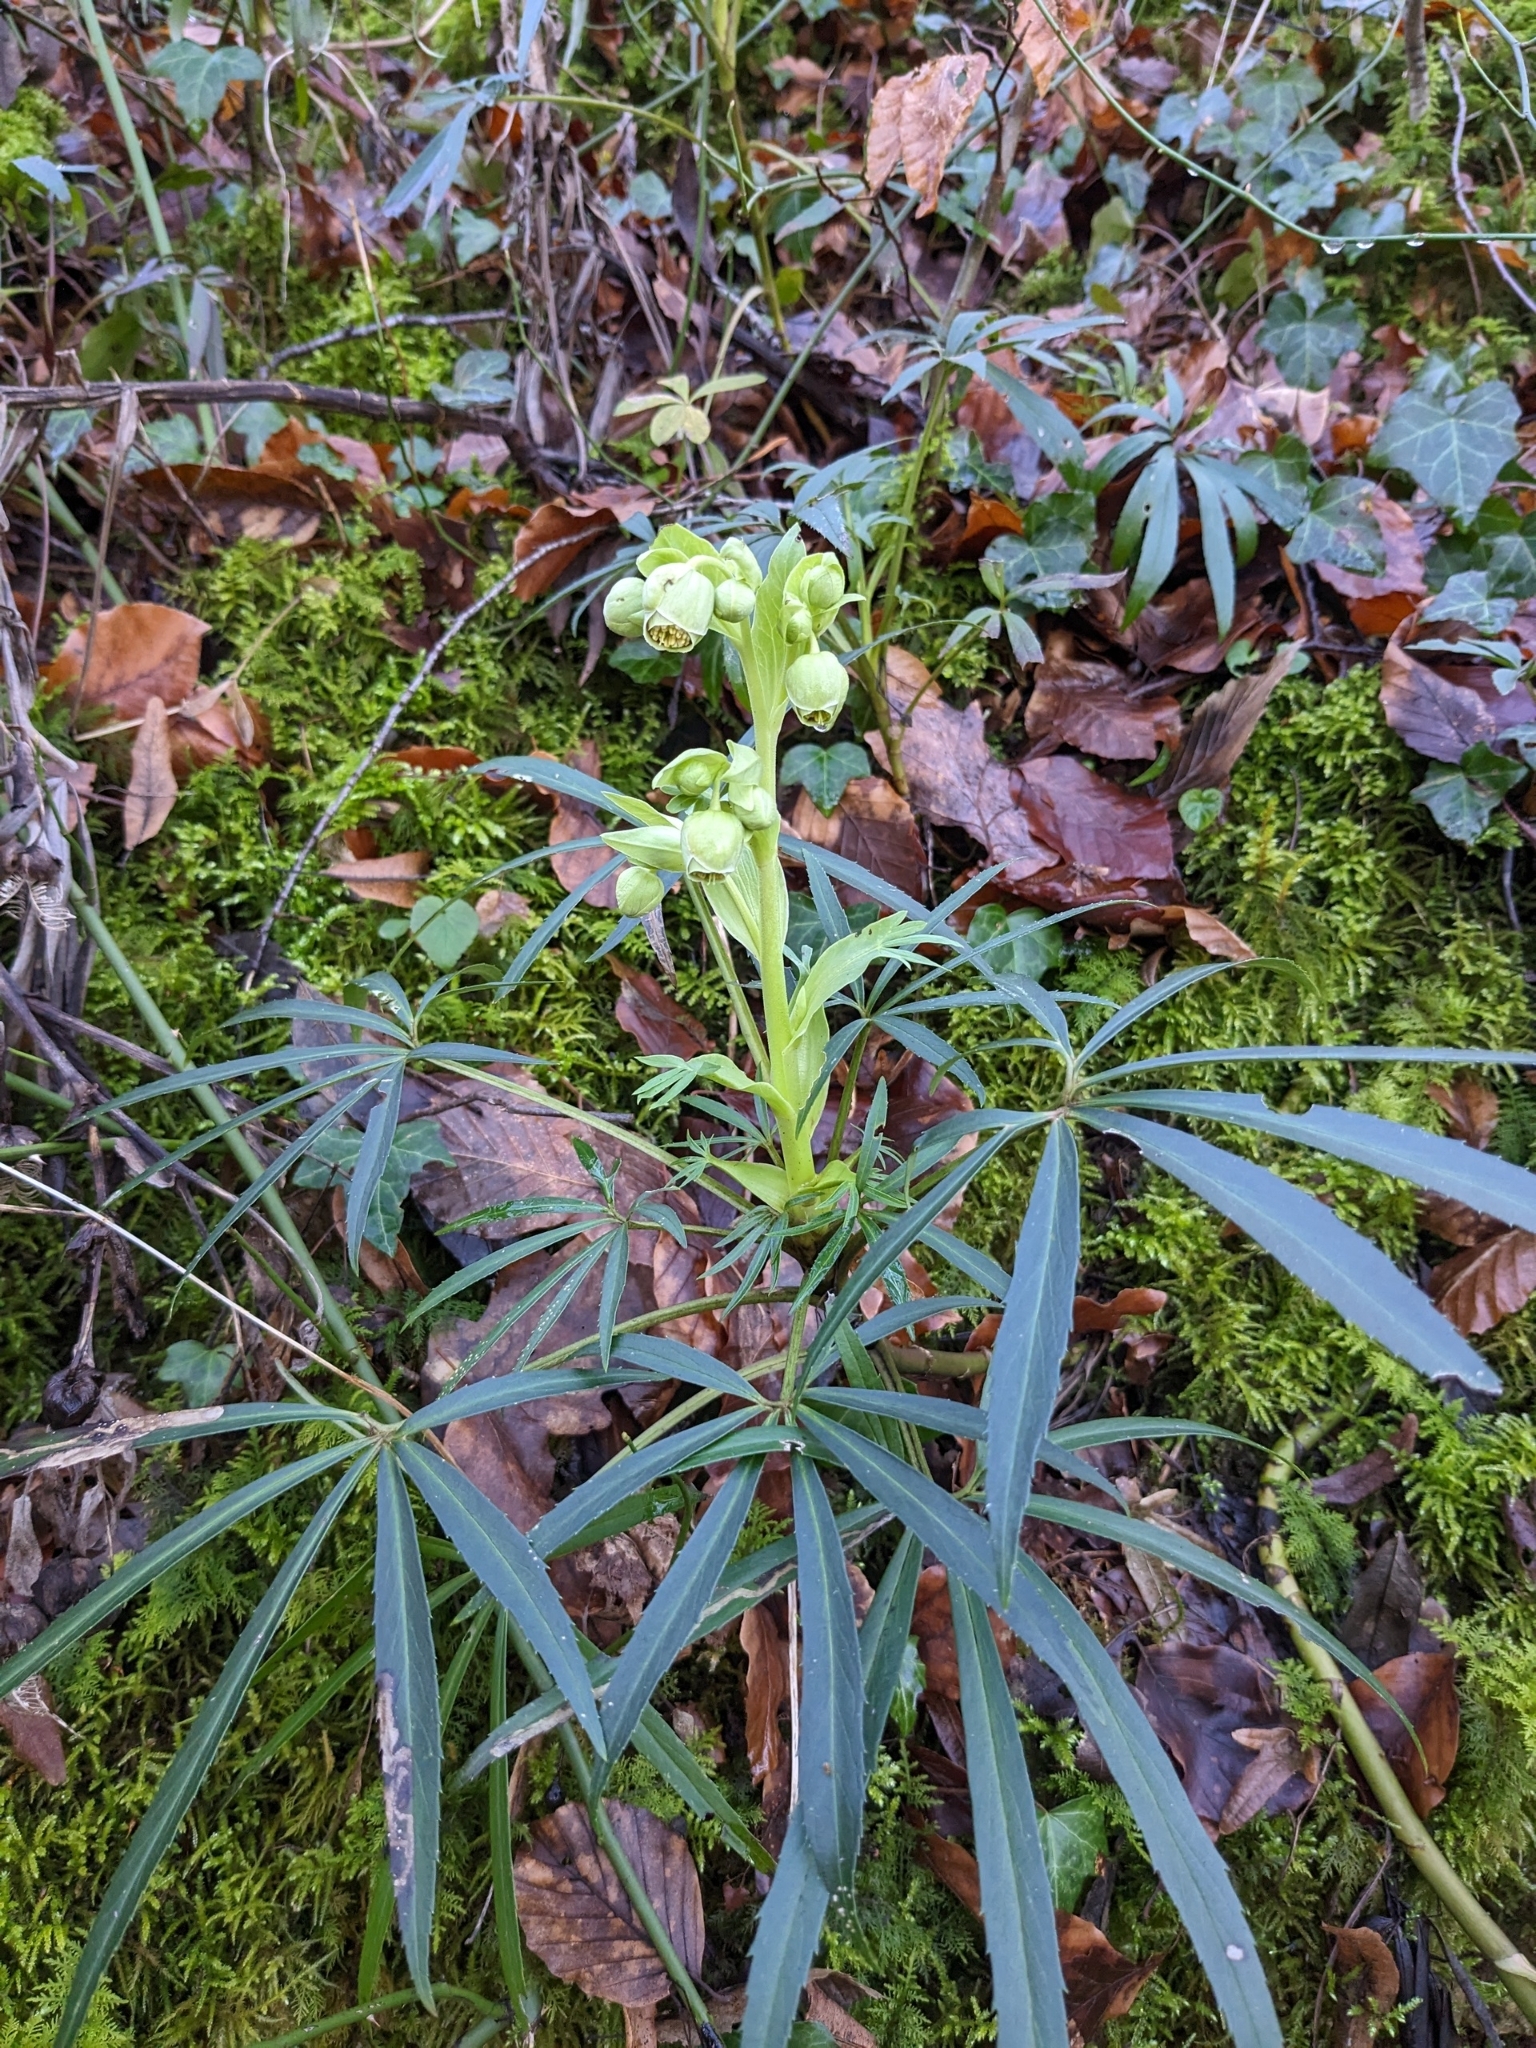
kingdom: Plantae
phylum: Tracheophyta
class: Magnoliopsida
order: Ranunculales
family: Ranunculaceae
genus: Helleborus
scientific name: Helleborus foetidus
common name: Stinking hellebore
